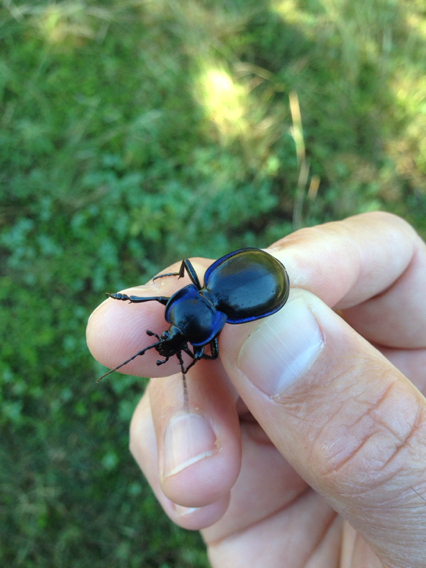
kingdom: Animalia
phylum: Arthropoda
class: Insecta
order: Coleoptera
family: Carabidae
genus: Carabus
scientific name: Carabus finitimus
